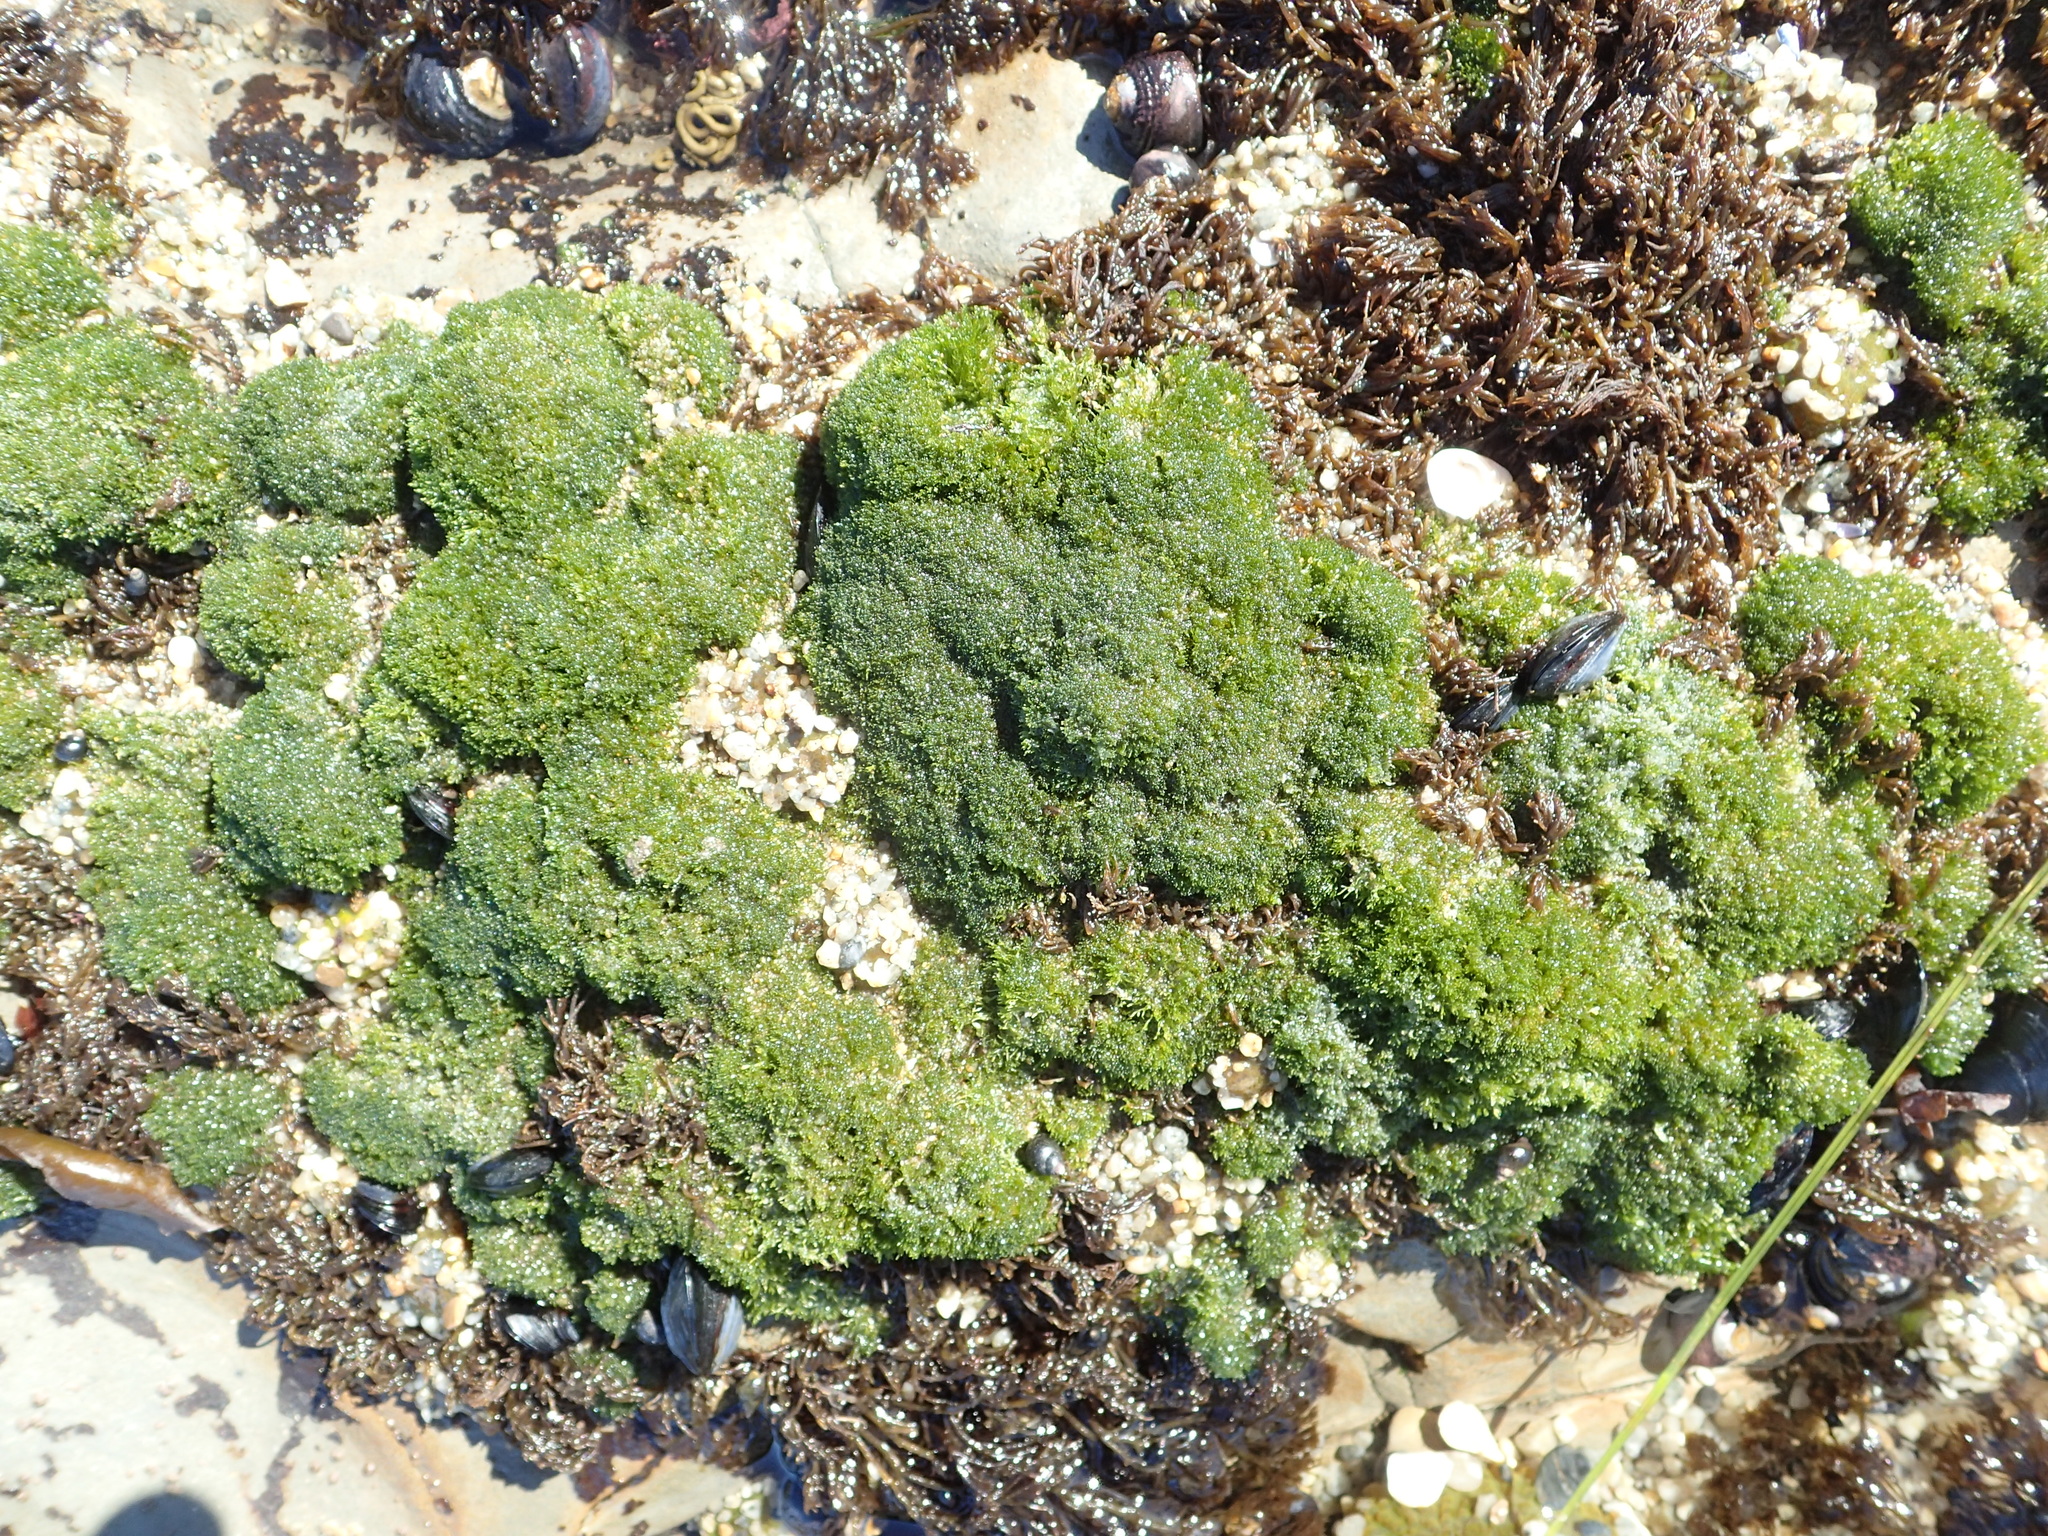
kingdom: Plantae
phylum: Chlorophyta
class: Ulvophyceae
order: Cladophorales
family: Cladophoraceae
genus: Cladophora
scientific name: Cladophora columbiana
